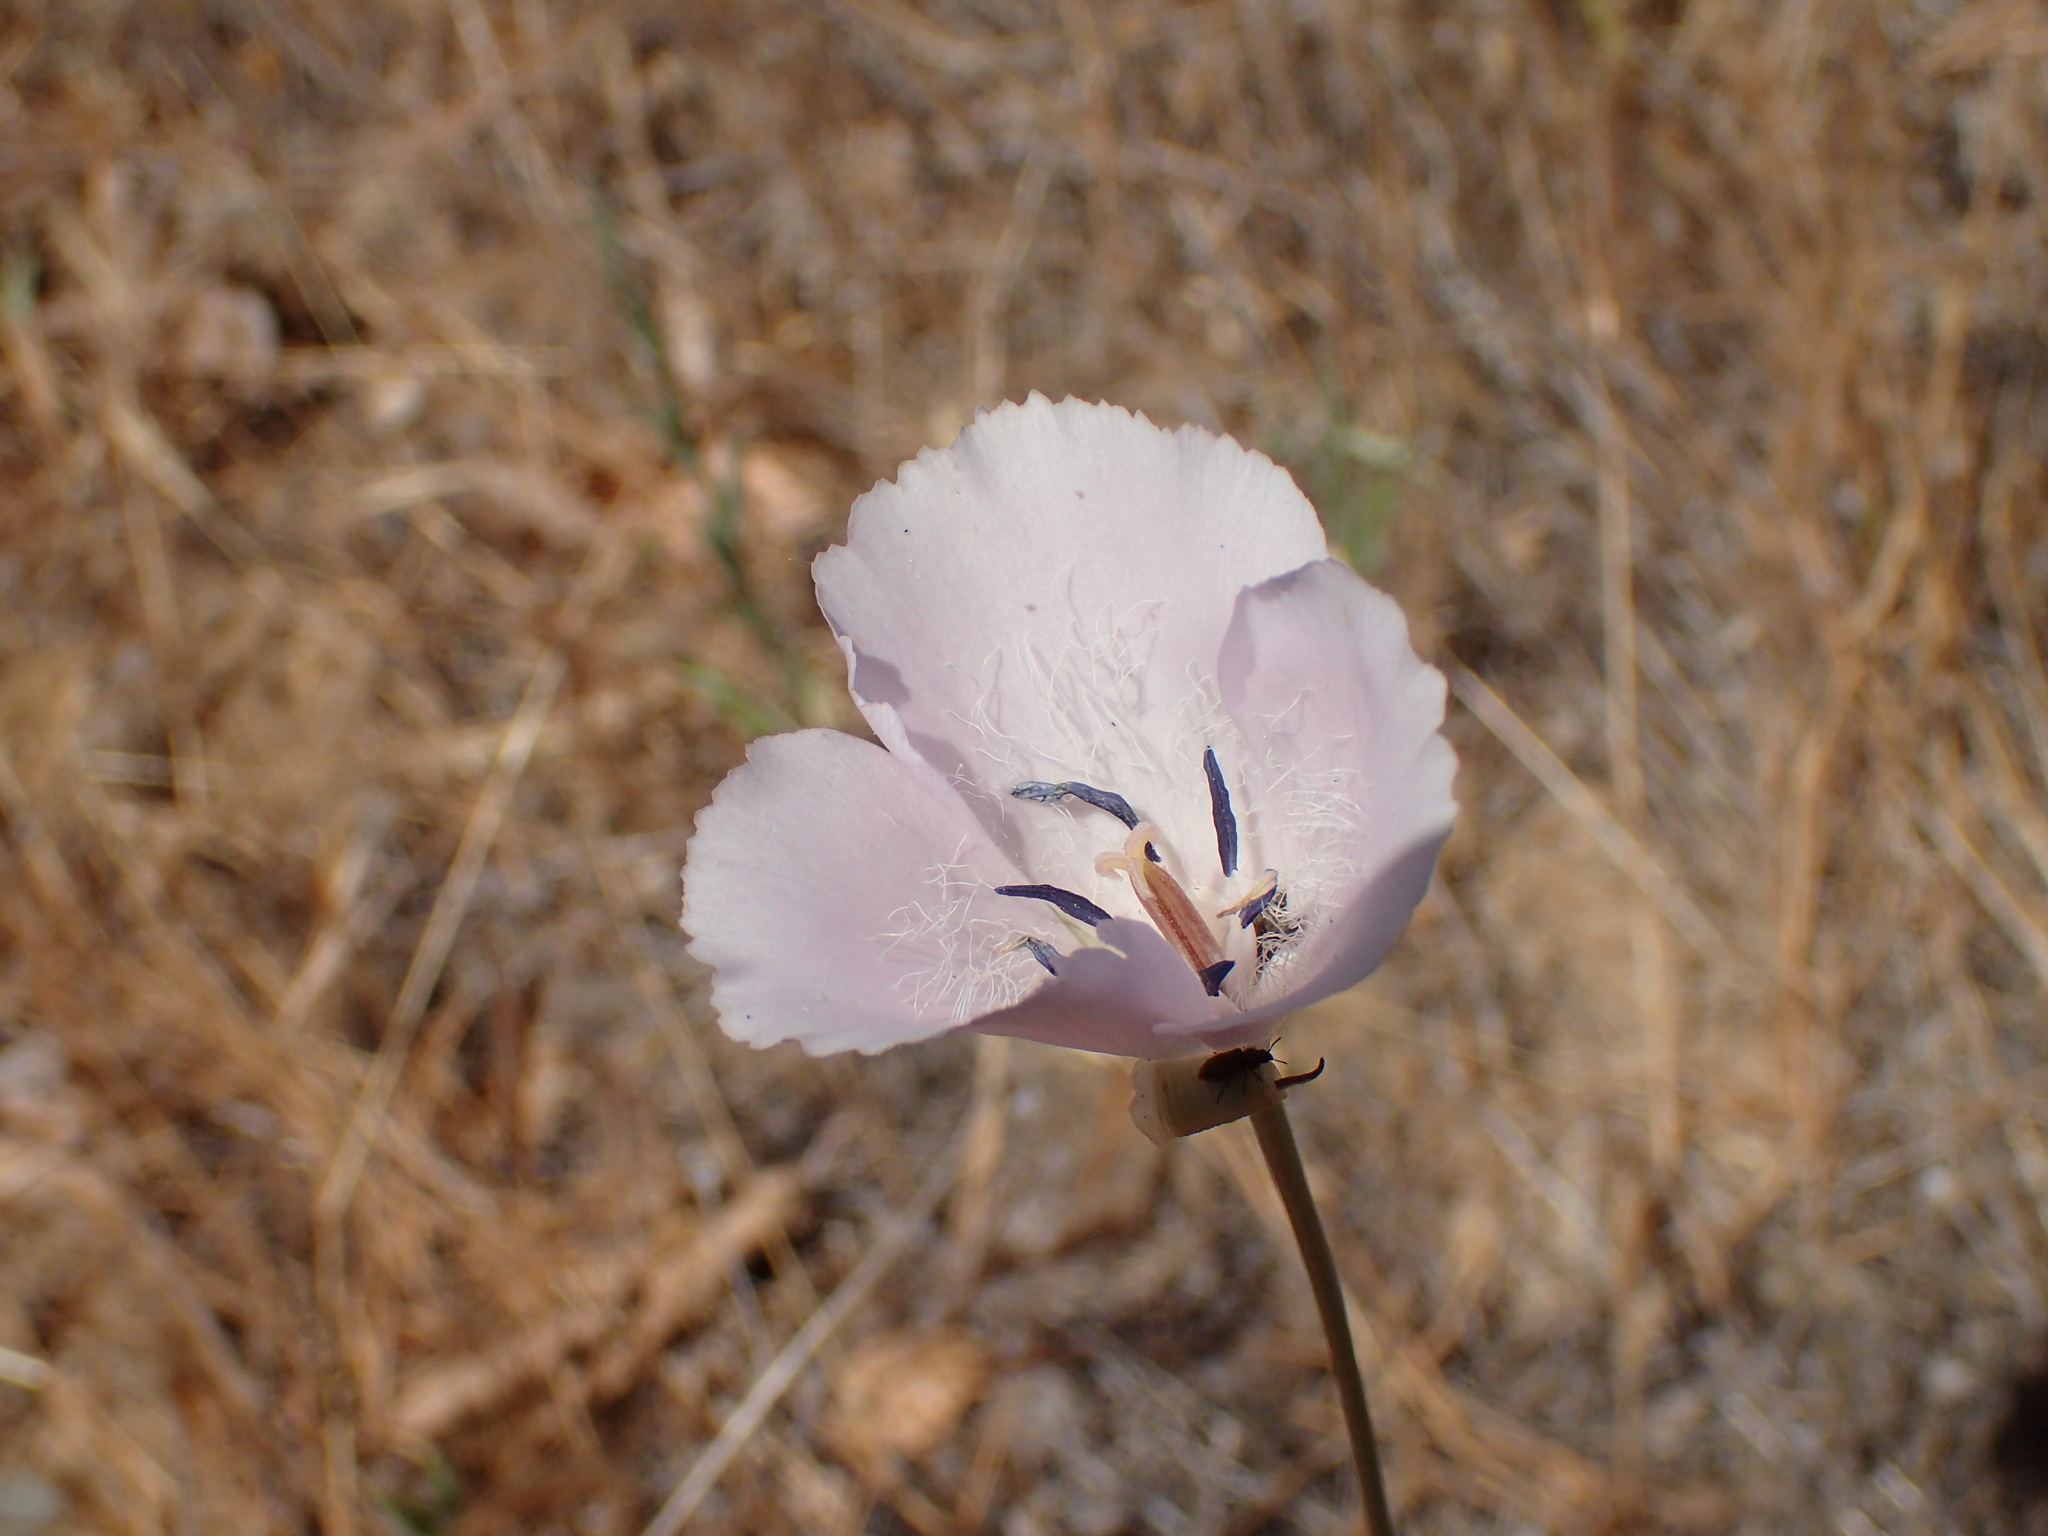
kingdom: Plantae
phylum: Tracheophyta
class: Liliopsida
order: Liliales
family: Liliaceae
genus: Calochortus
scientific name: Calochortus splendens
